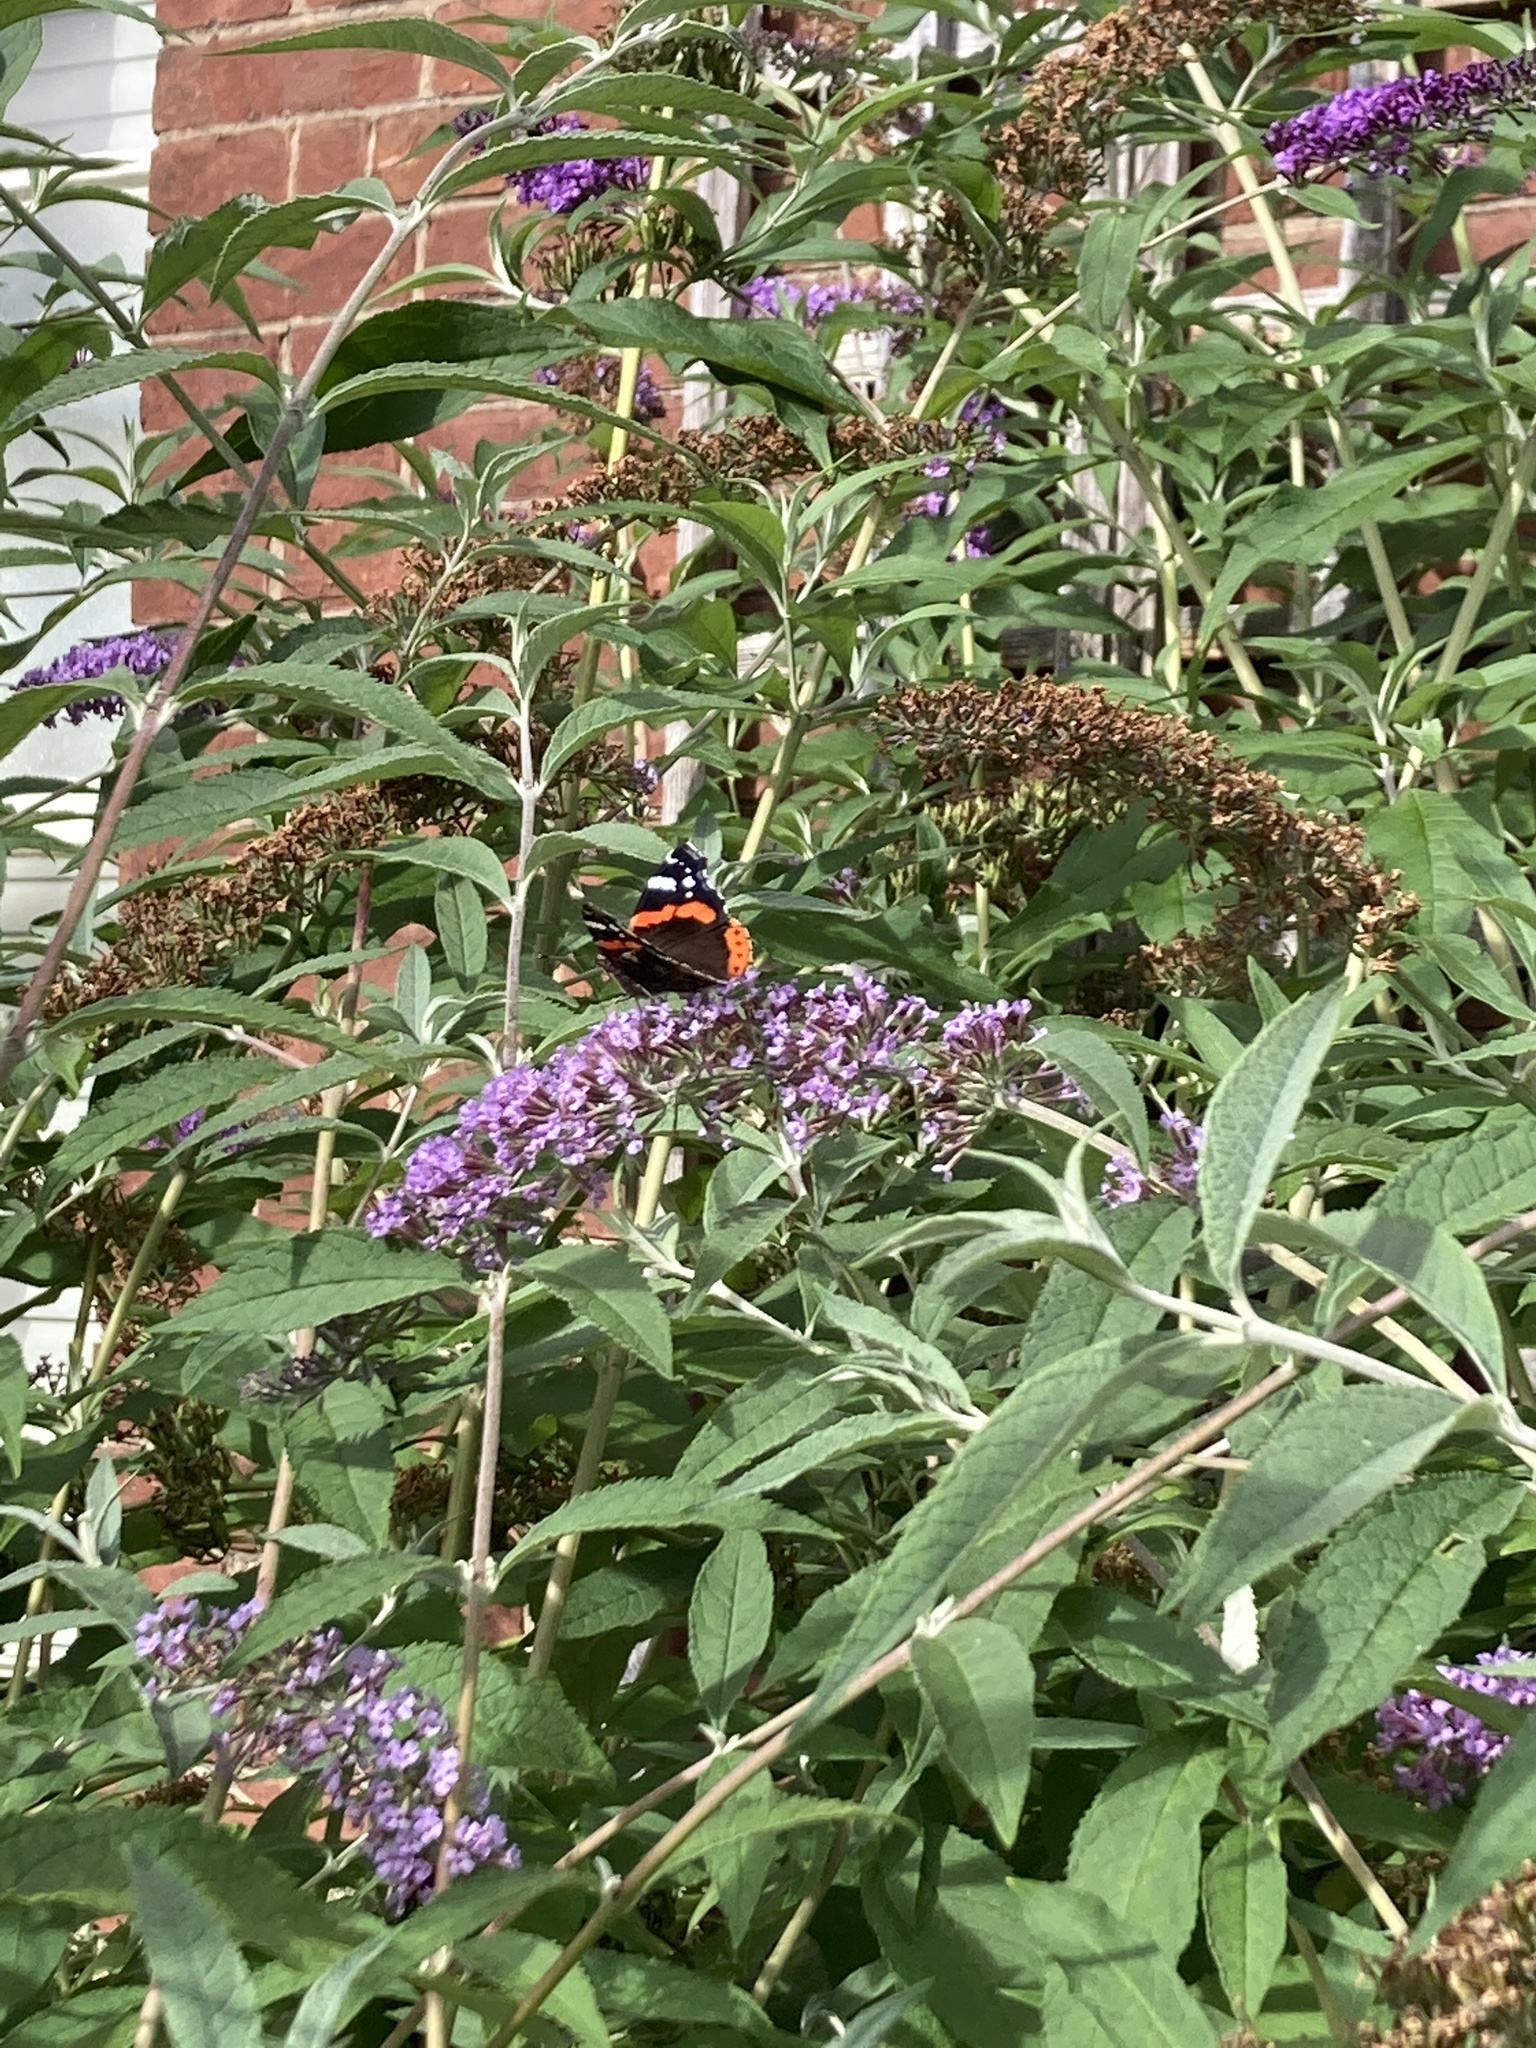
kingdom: Animalia
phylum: Arthropoda
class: Insecta
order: Lepidoptera
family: Nymphalidae
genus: Vanessa
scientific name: Vanessa atalanta
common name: Red admiral
